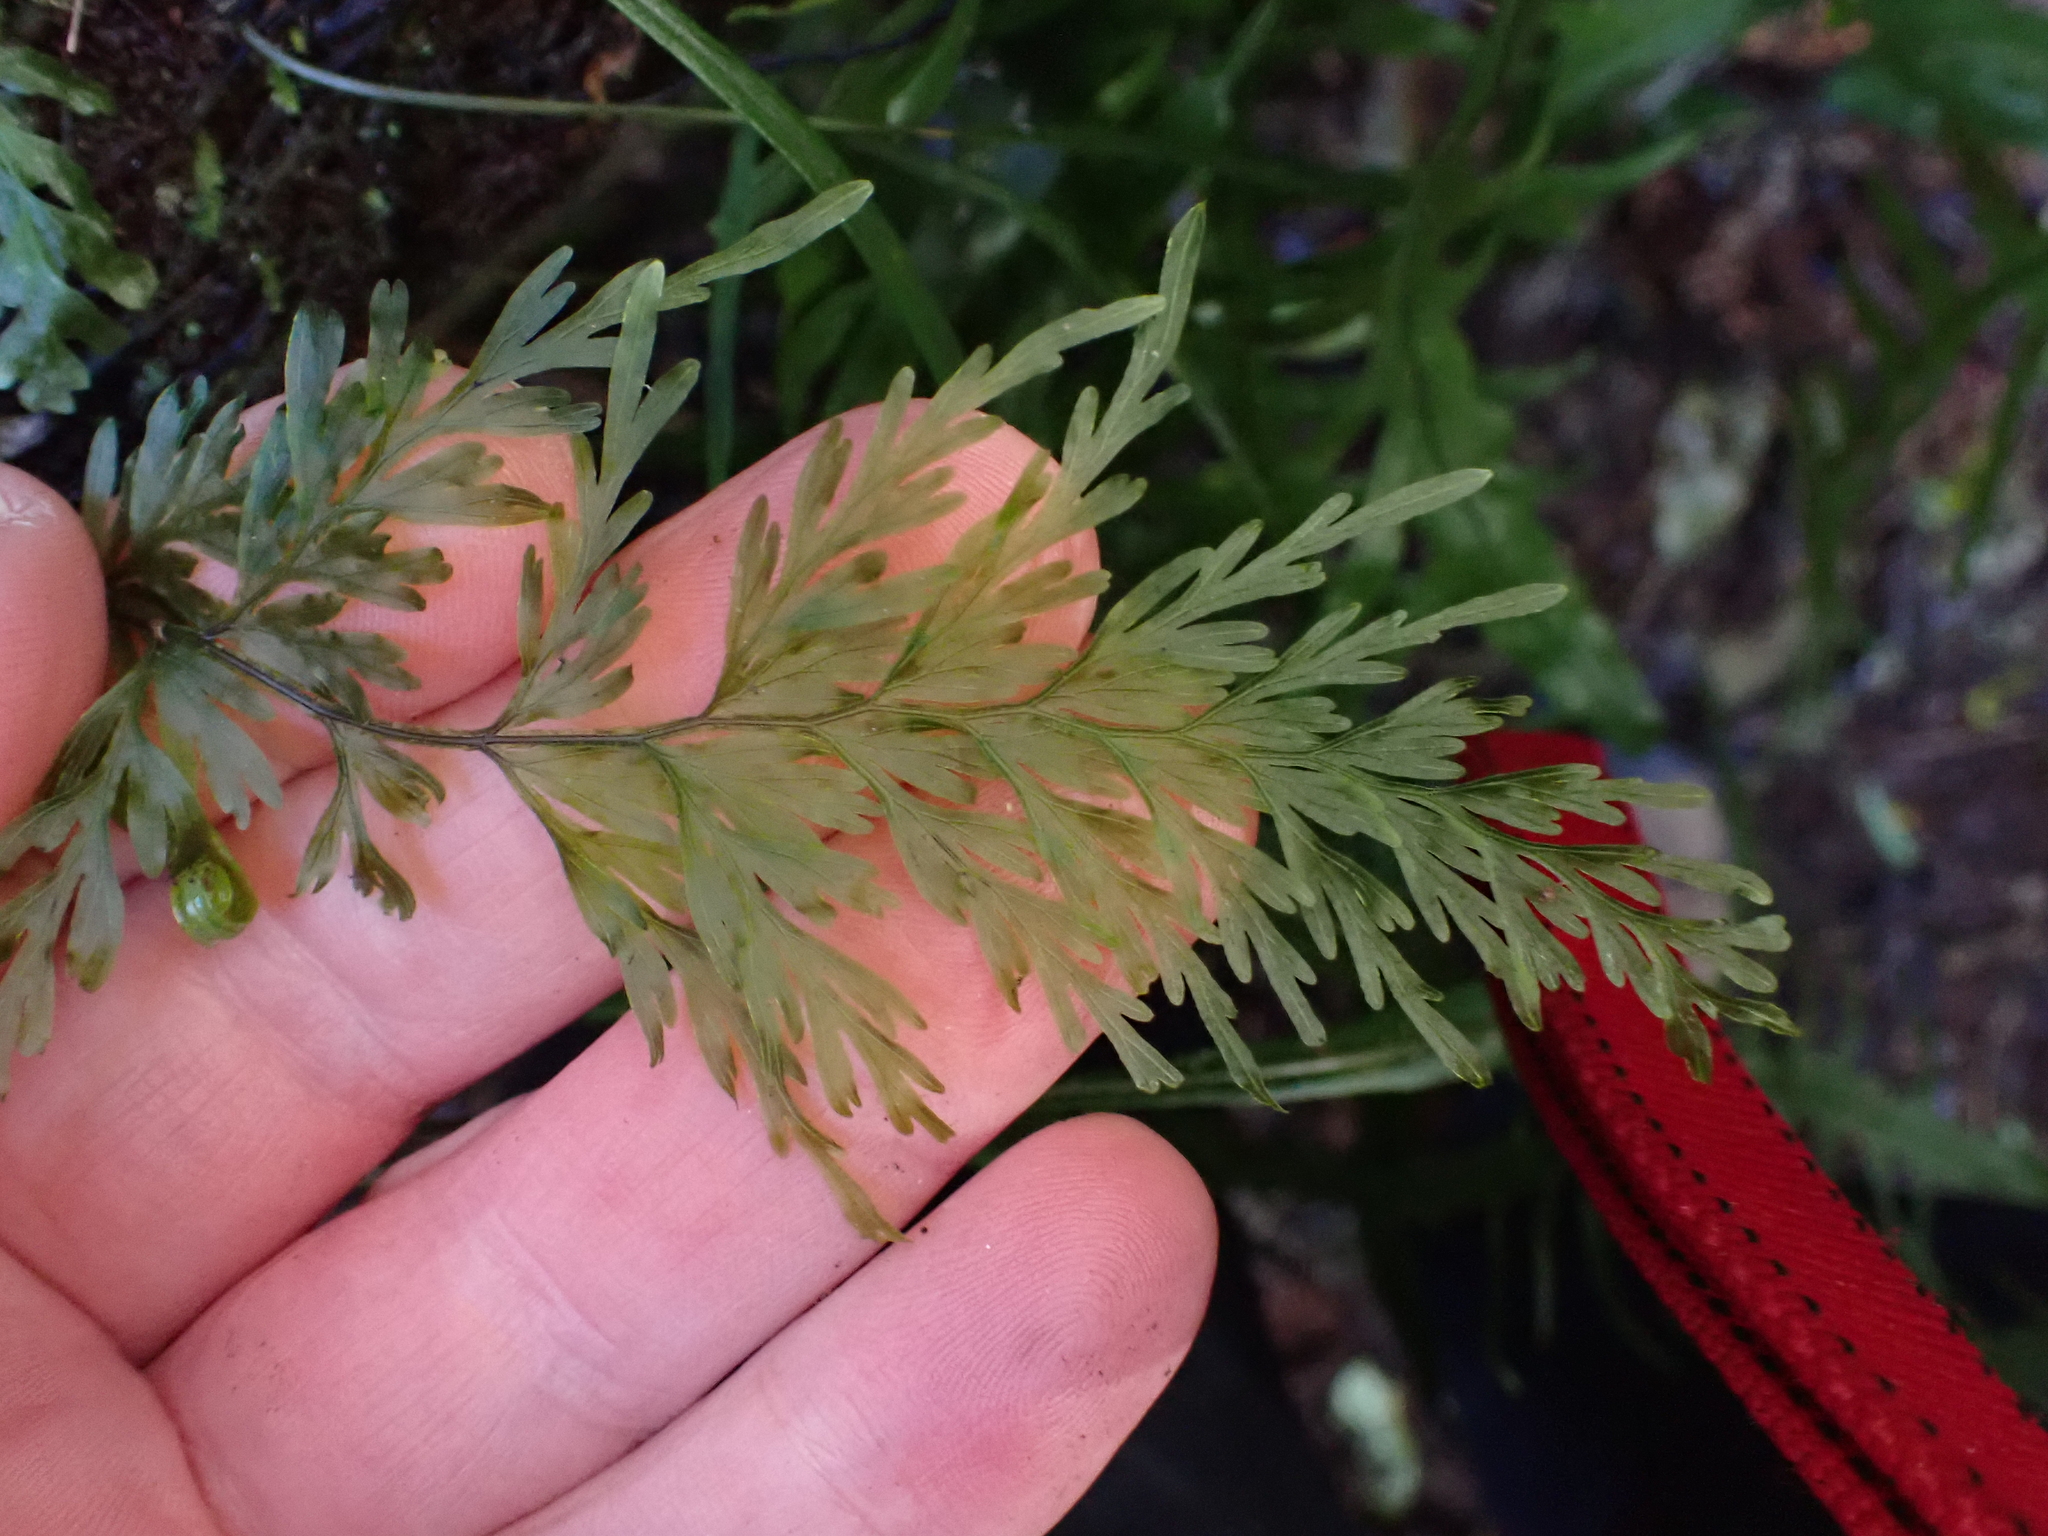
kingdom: Plantae
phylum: Tracheophyta
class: Polypodiopsida
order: Hymenophyllales
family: Hymenophyllaceae
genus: Hymenophyllum
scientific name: Hymenophyllum demissum
